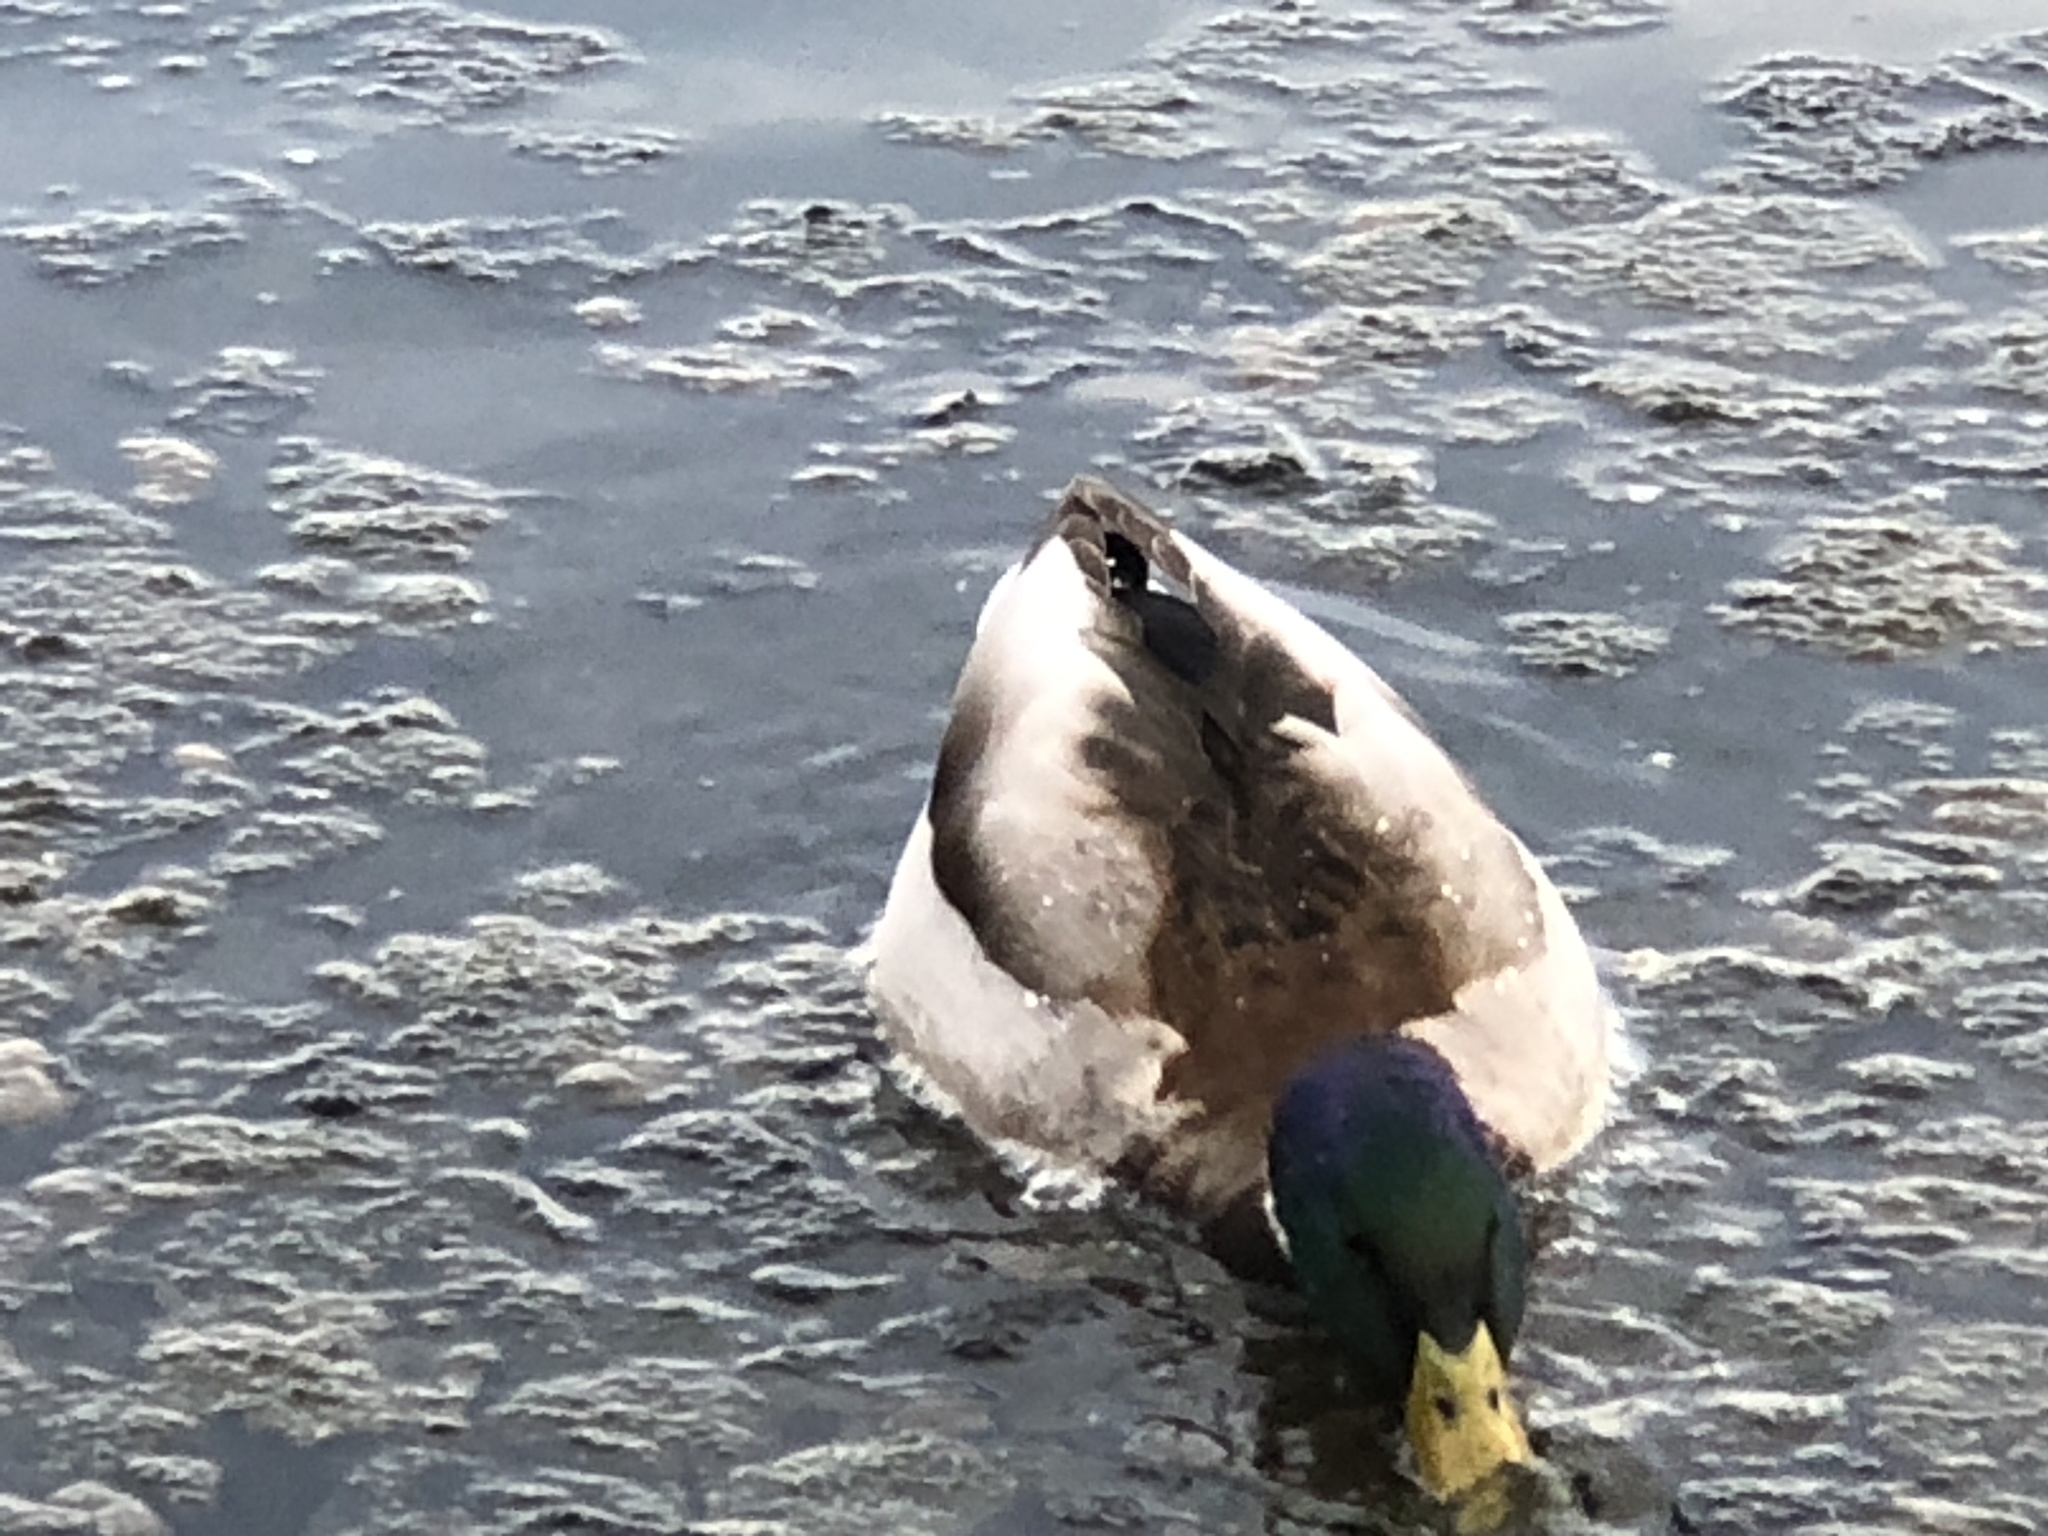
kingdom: Animalia
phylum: Chordata
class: Aves
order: Anseriformes
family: Anatidae
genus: Anas
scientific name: Anas platyrhynchos
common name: Mallard
